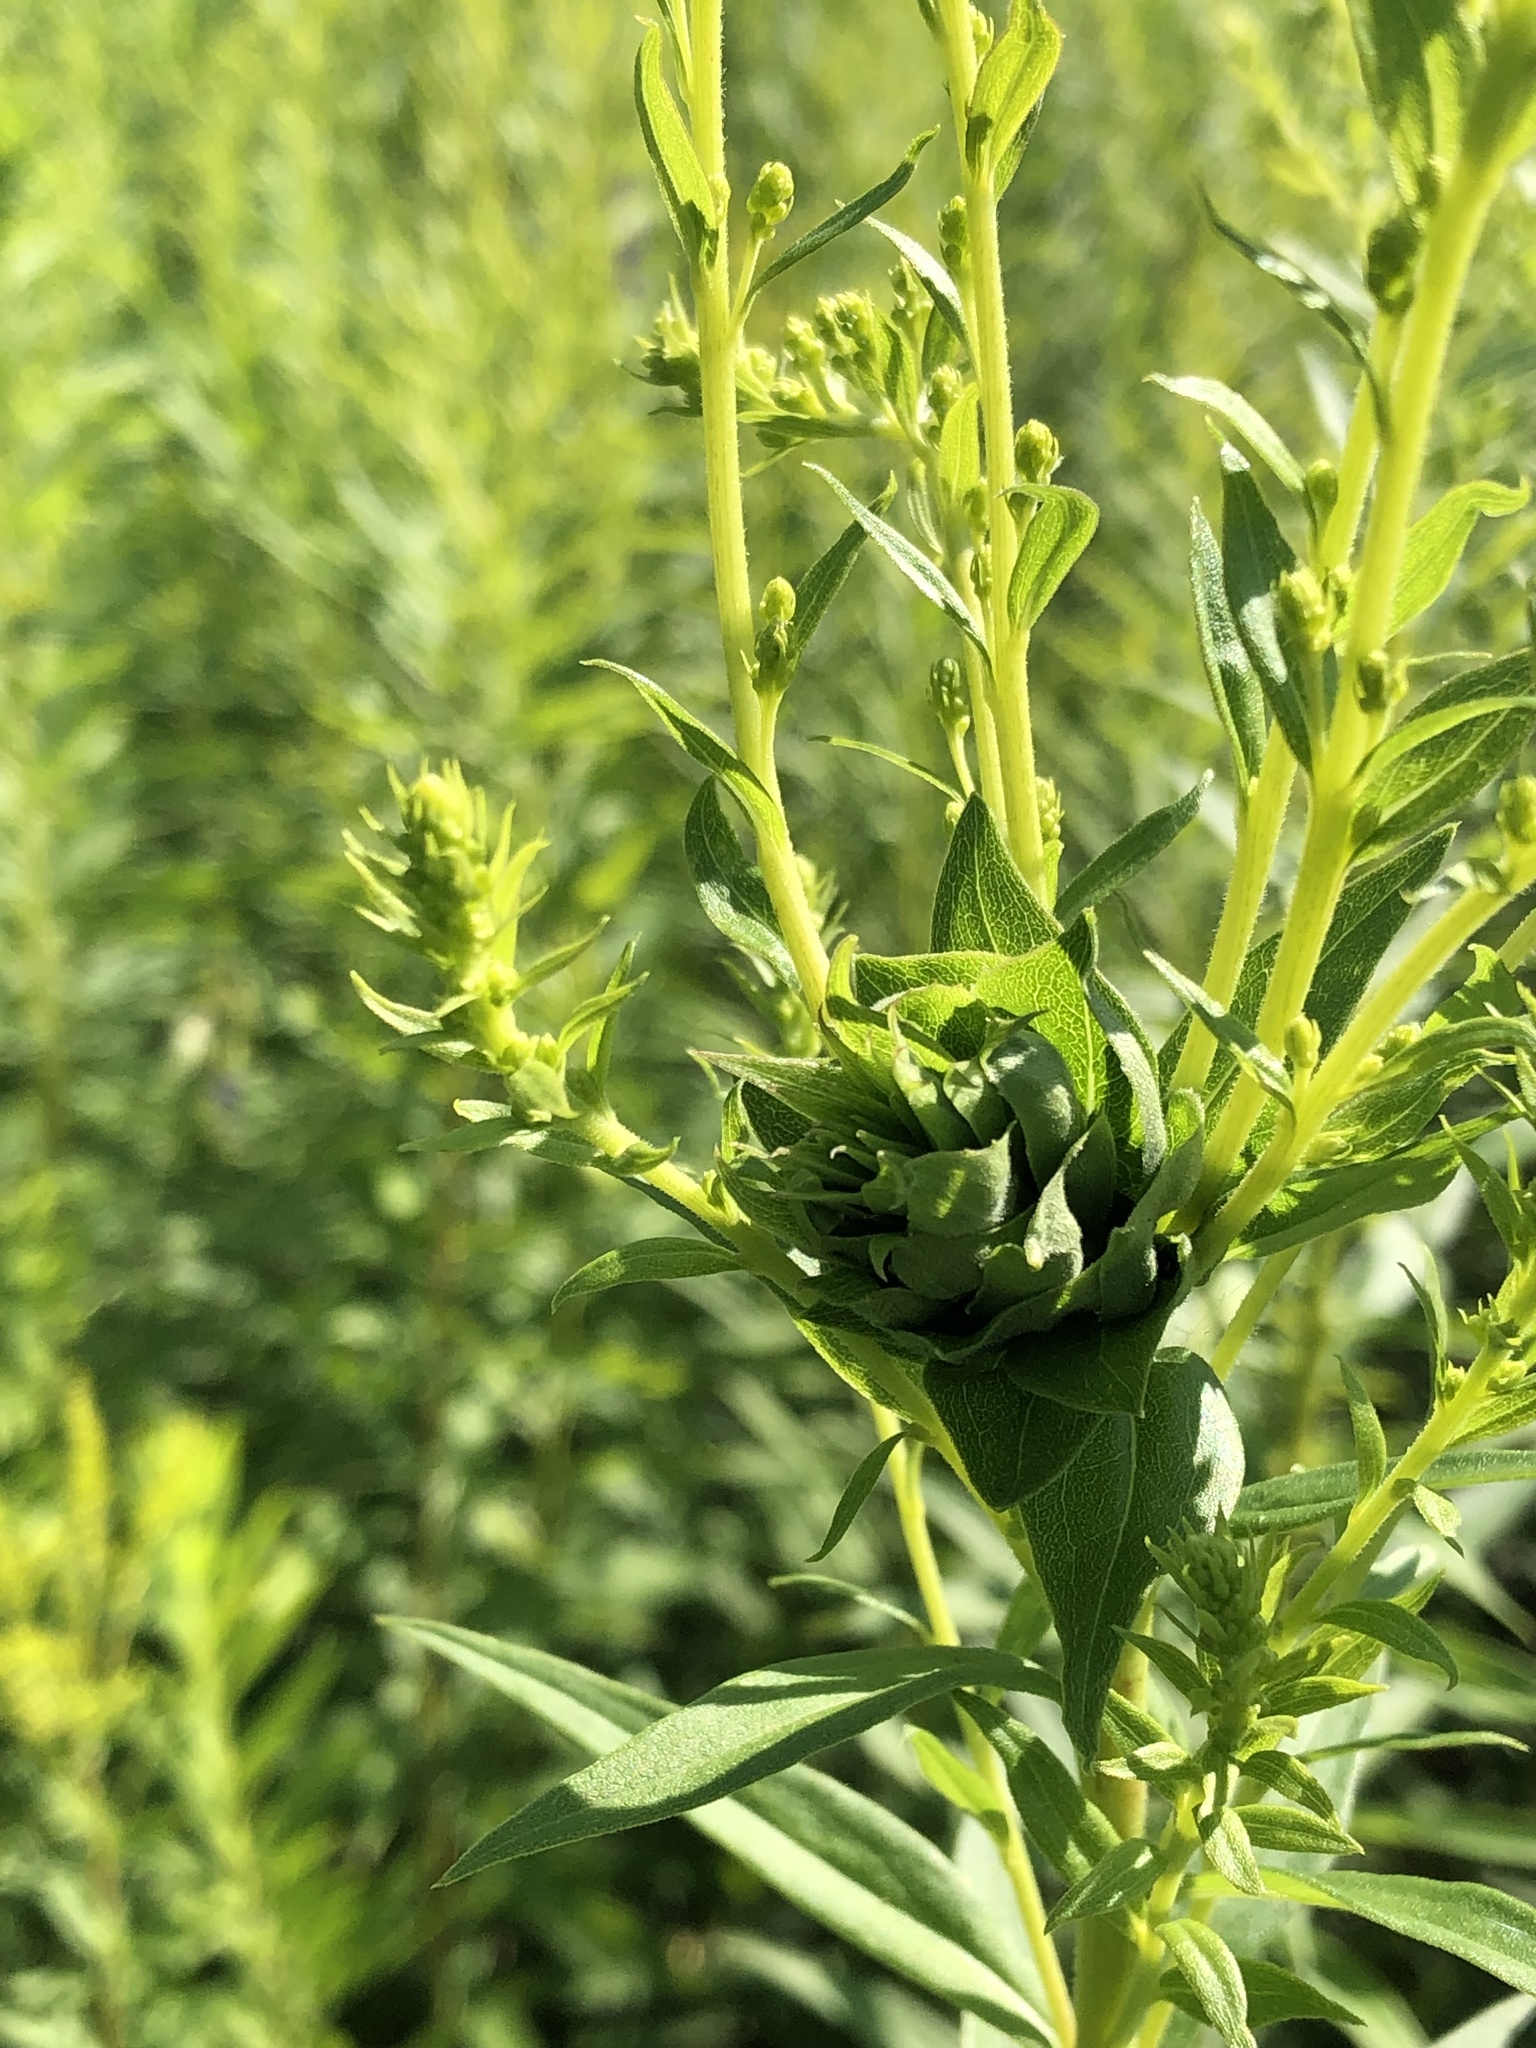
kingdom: Animalia
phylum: Arthropoda
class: Insecta
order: Diptera
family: Cecidomyiidae
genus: Rhopalomyia
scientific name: Rhopalomyia solidaginis
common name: Goldenrod bunch gall midge
